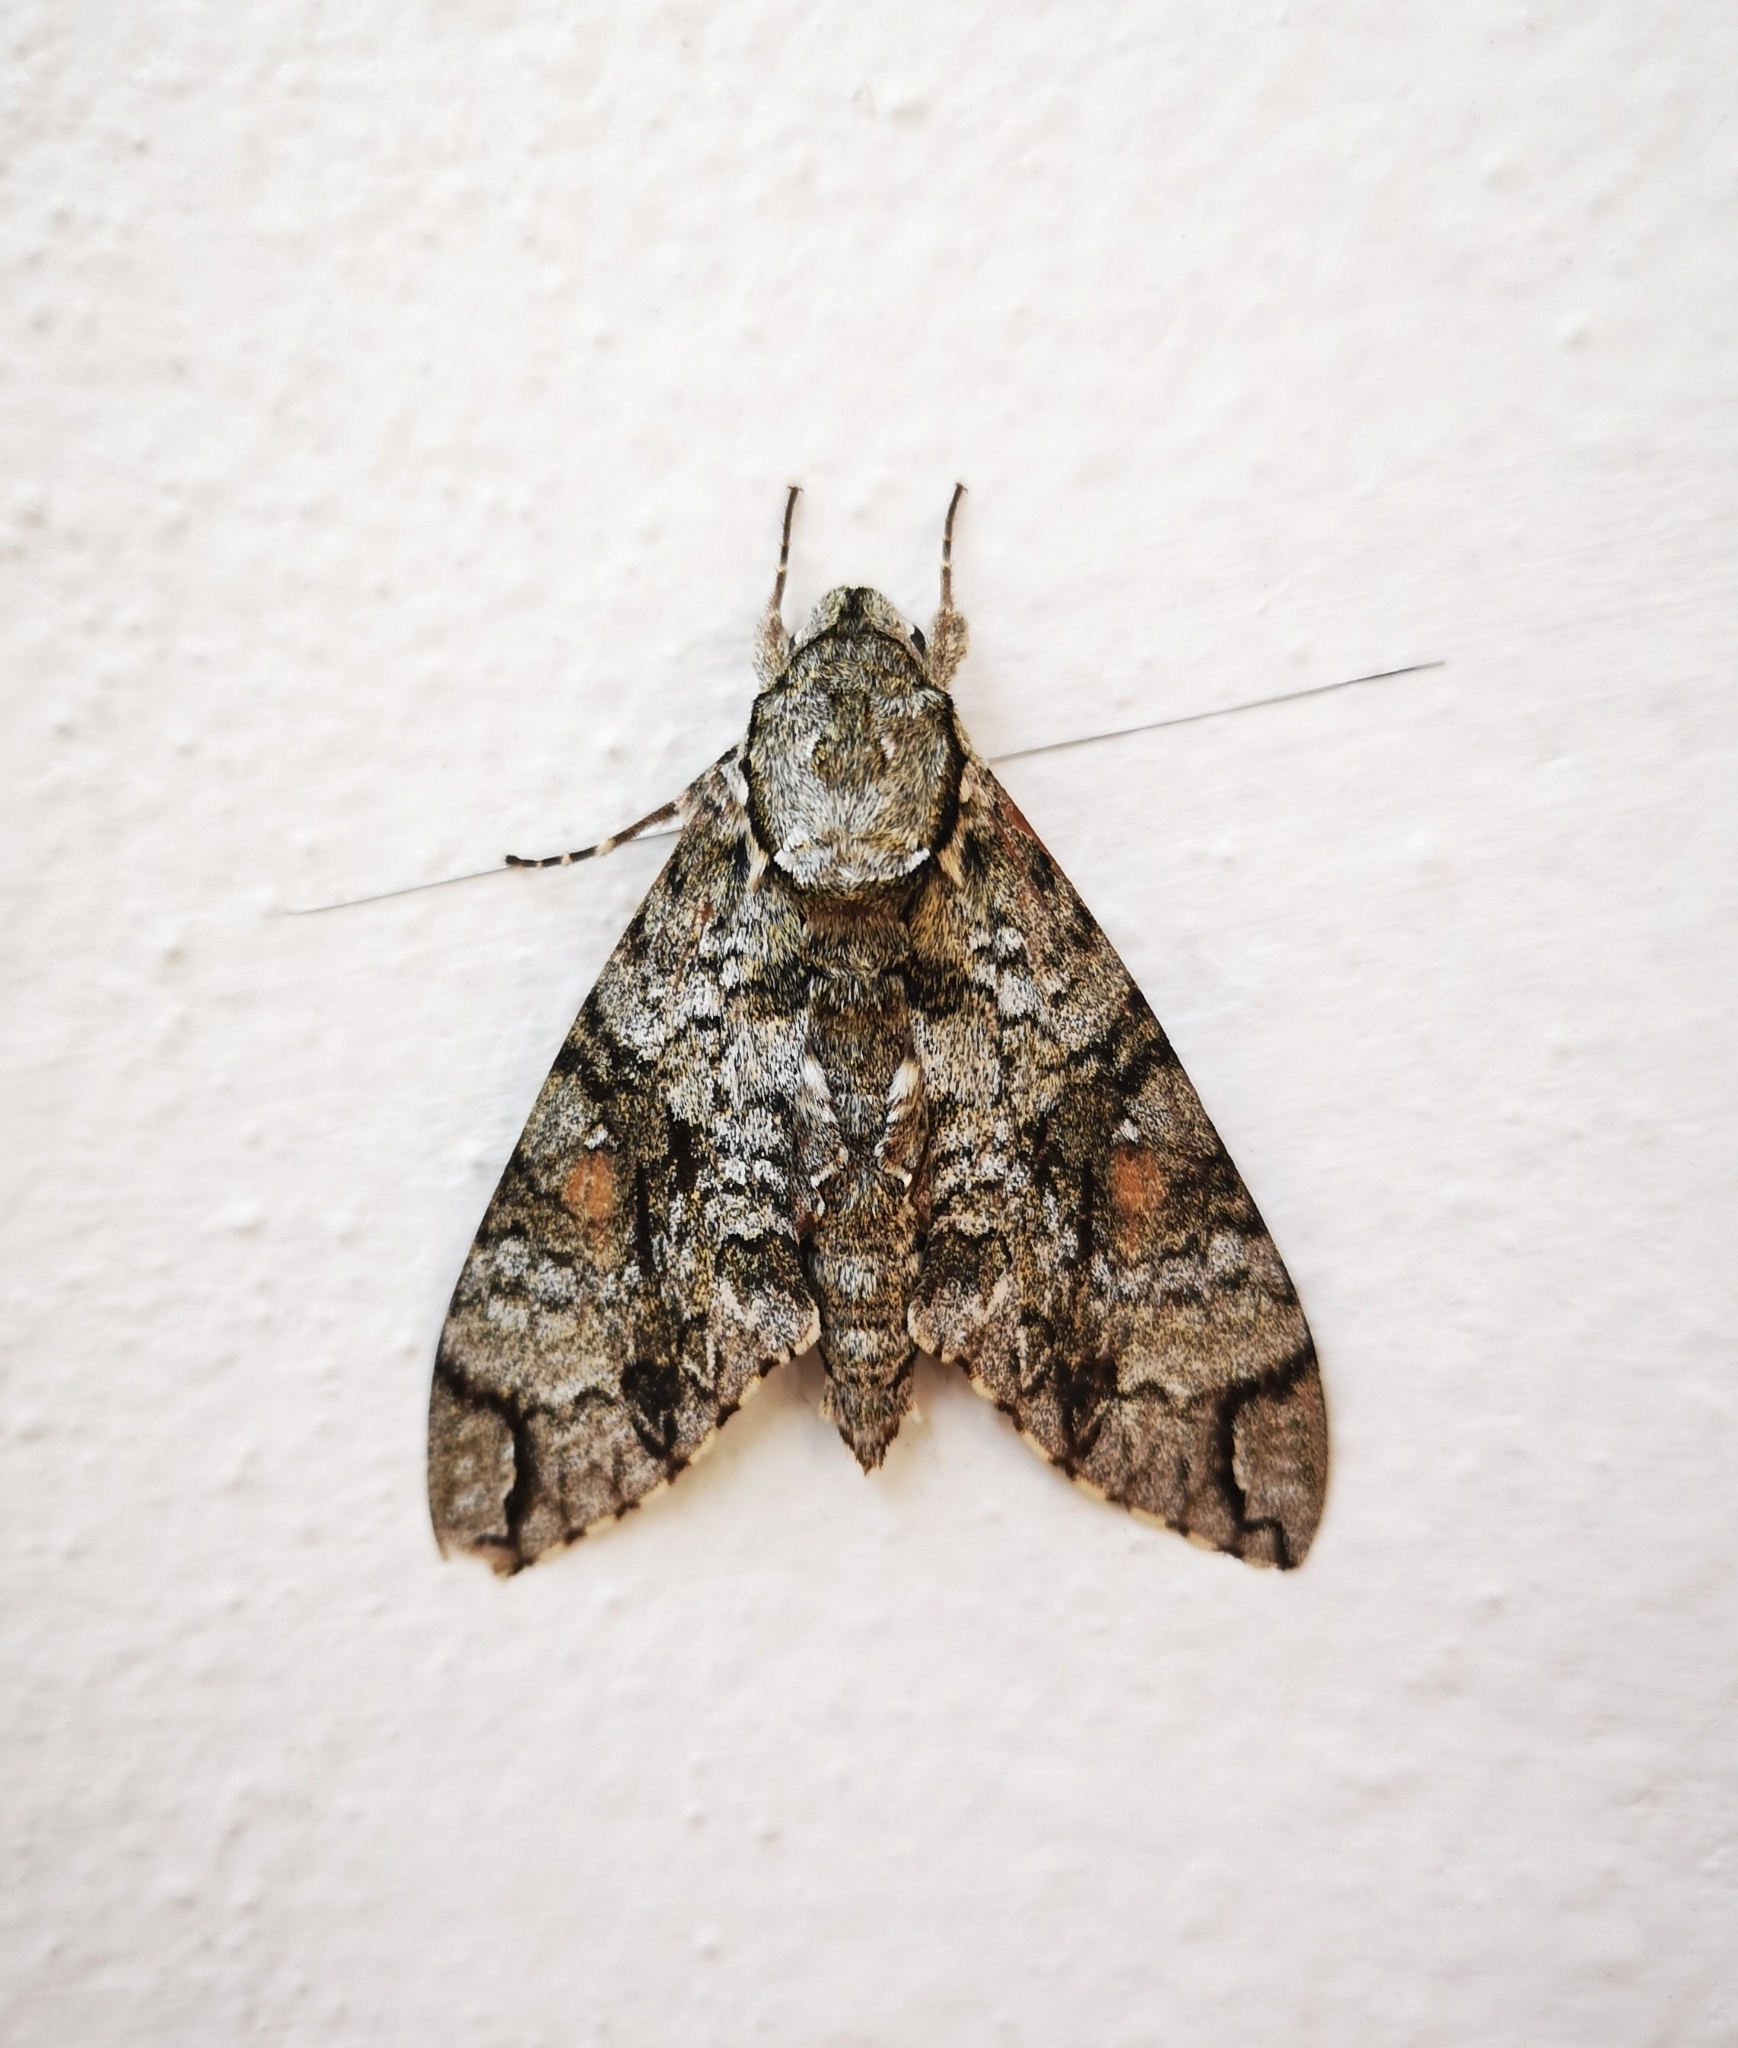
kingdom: Animalia
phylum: Arthropoda
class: Insecta
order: Lepidoptera
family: Sphingidae
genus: Manduca
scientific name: Manduca florestan
